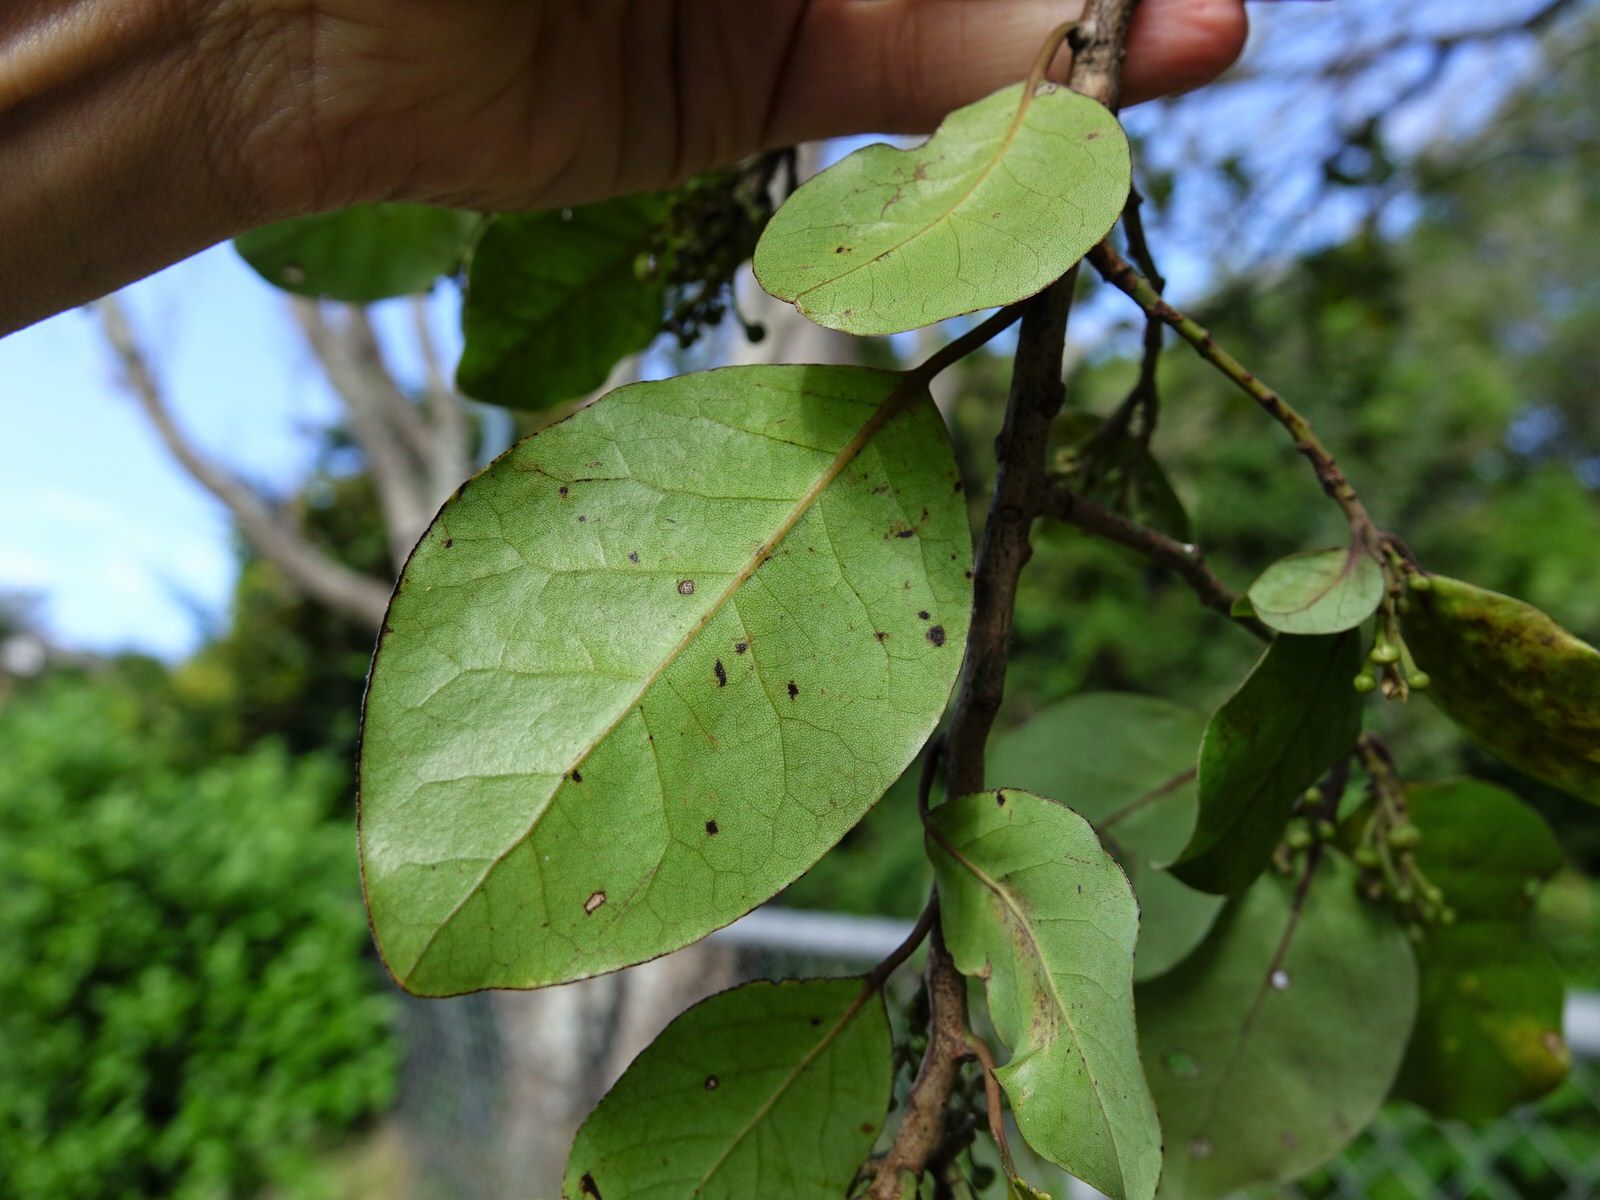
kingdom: Plantae
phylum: Tracheophyta
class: Magnoliopsida
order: Laurales
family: Lauraceae
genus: Litsea
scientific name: Litsea calicaris
